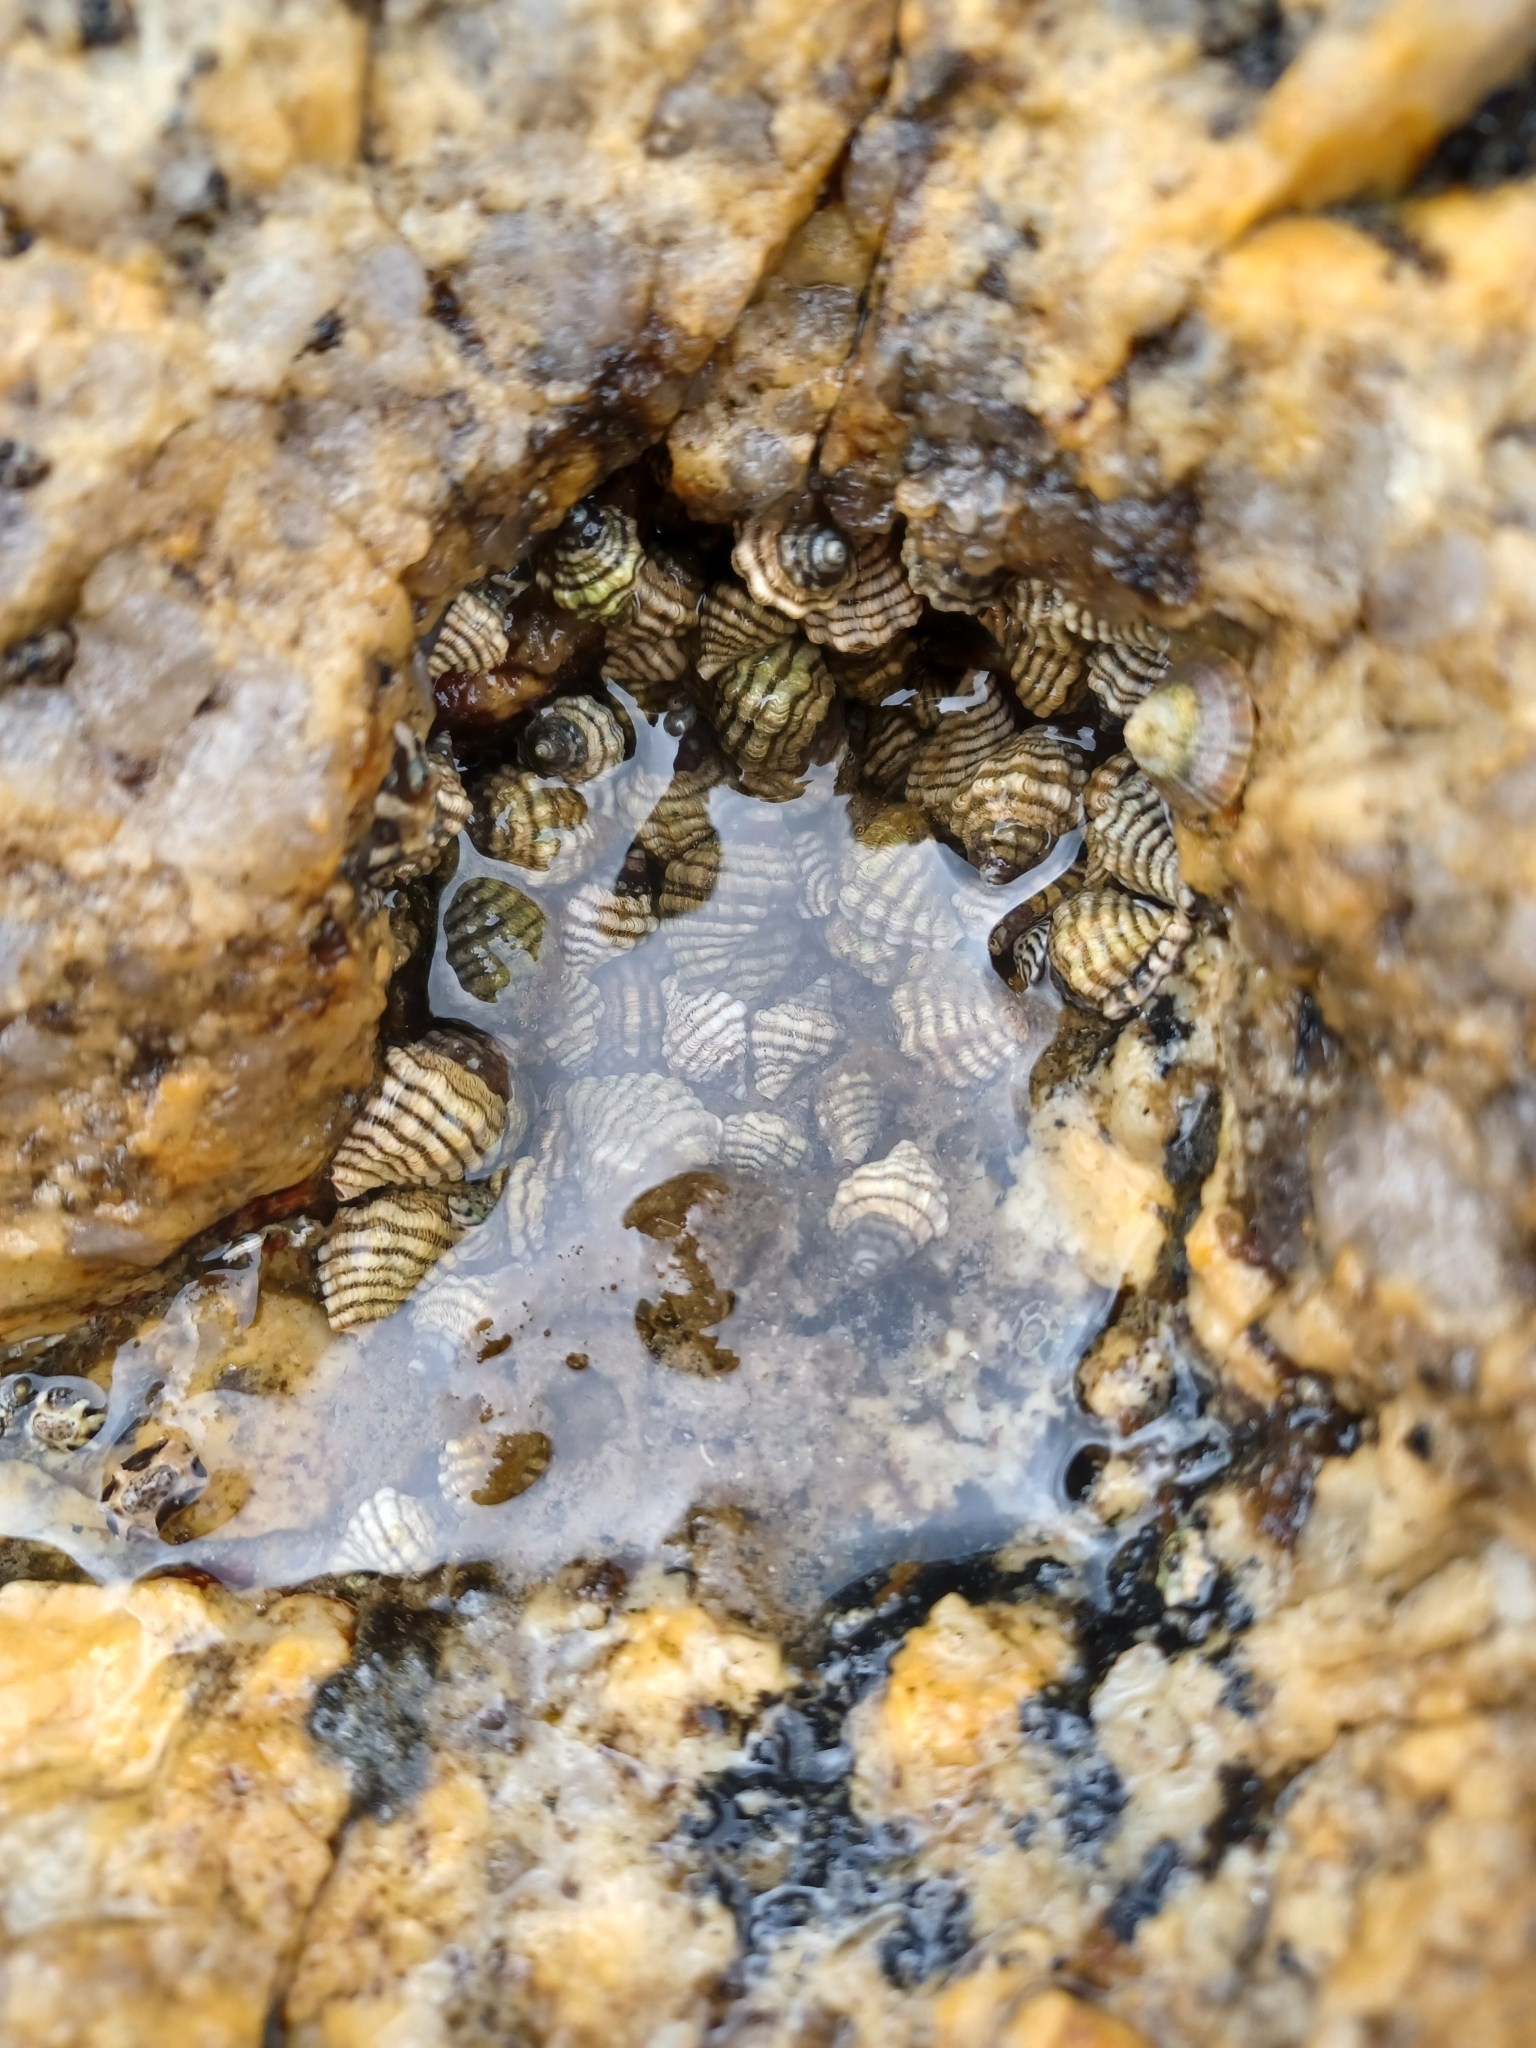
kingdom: Animalia
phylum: Mollusca
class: Gastropoda
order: Neogastropoda
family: Muricidae
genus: Bedeva
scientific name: Bedeva vinosa
